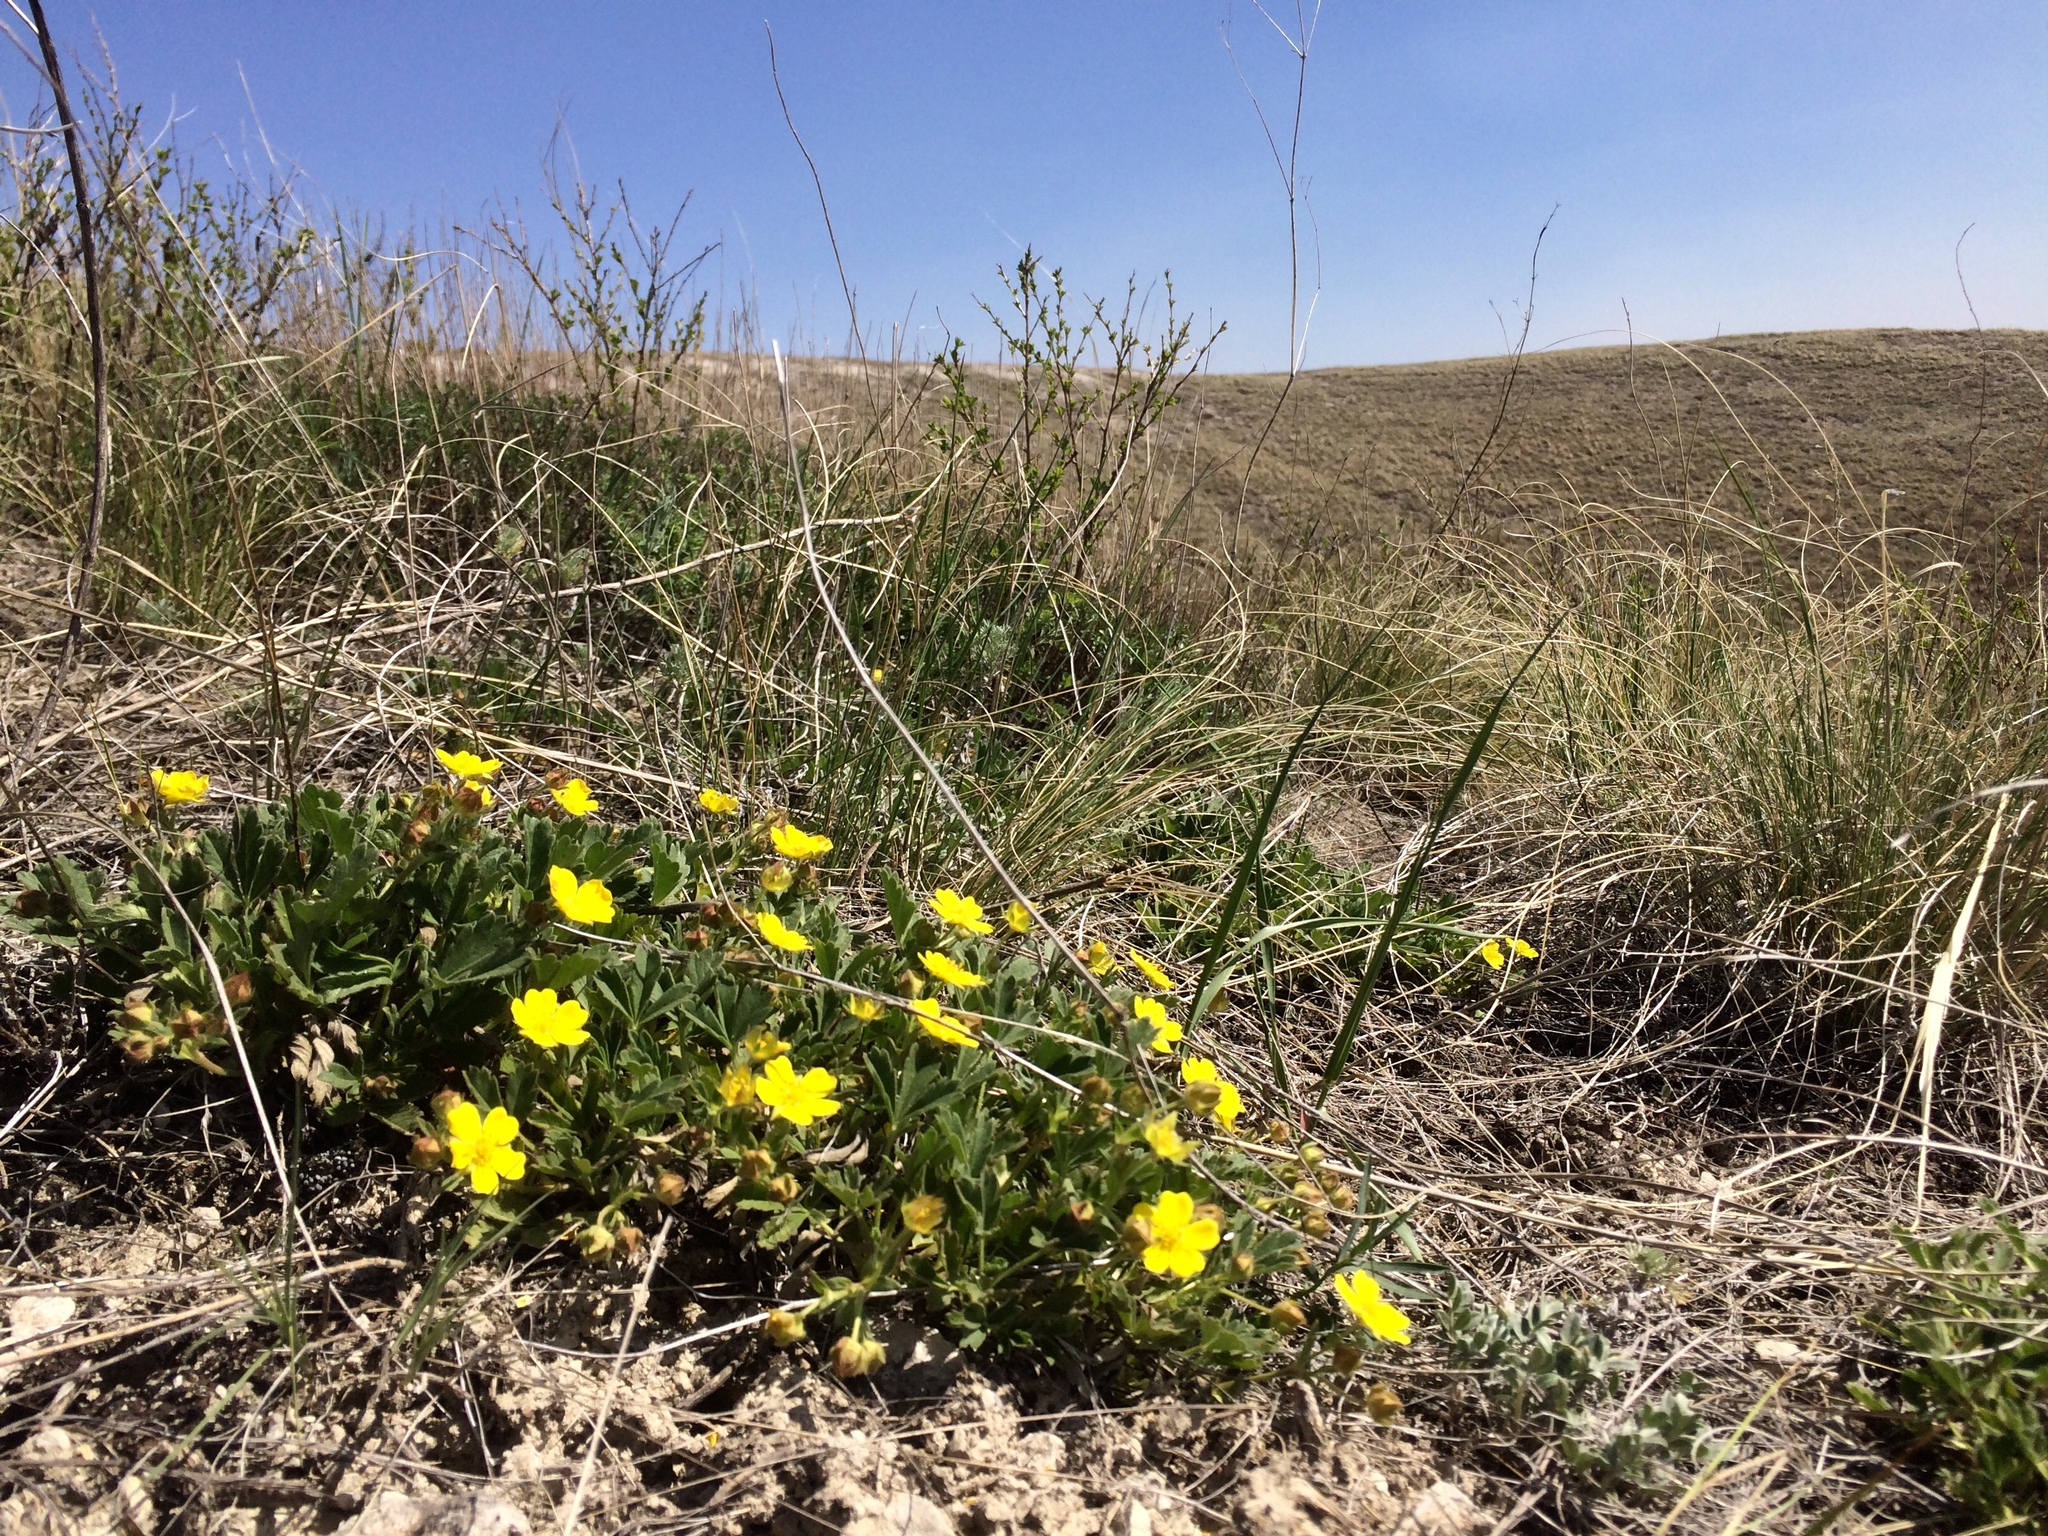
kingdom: Plantae
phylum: Tracheophyta
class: Magnoliopsida
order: Rosales
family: Rosaceae
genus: Potentilla
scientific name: Potentilla humifusa
